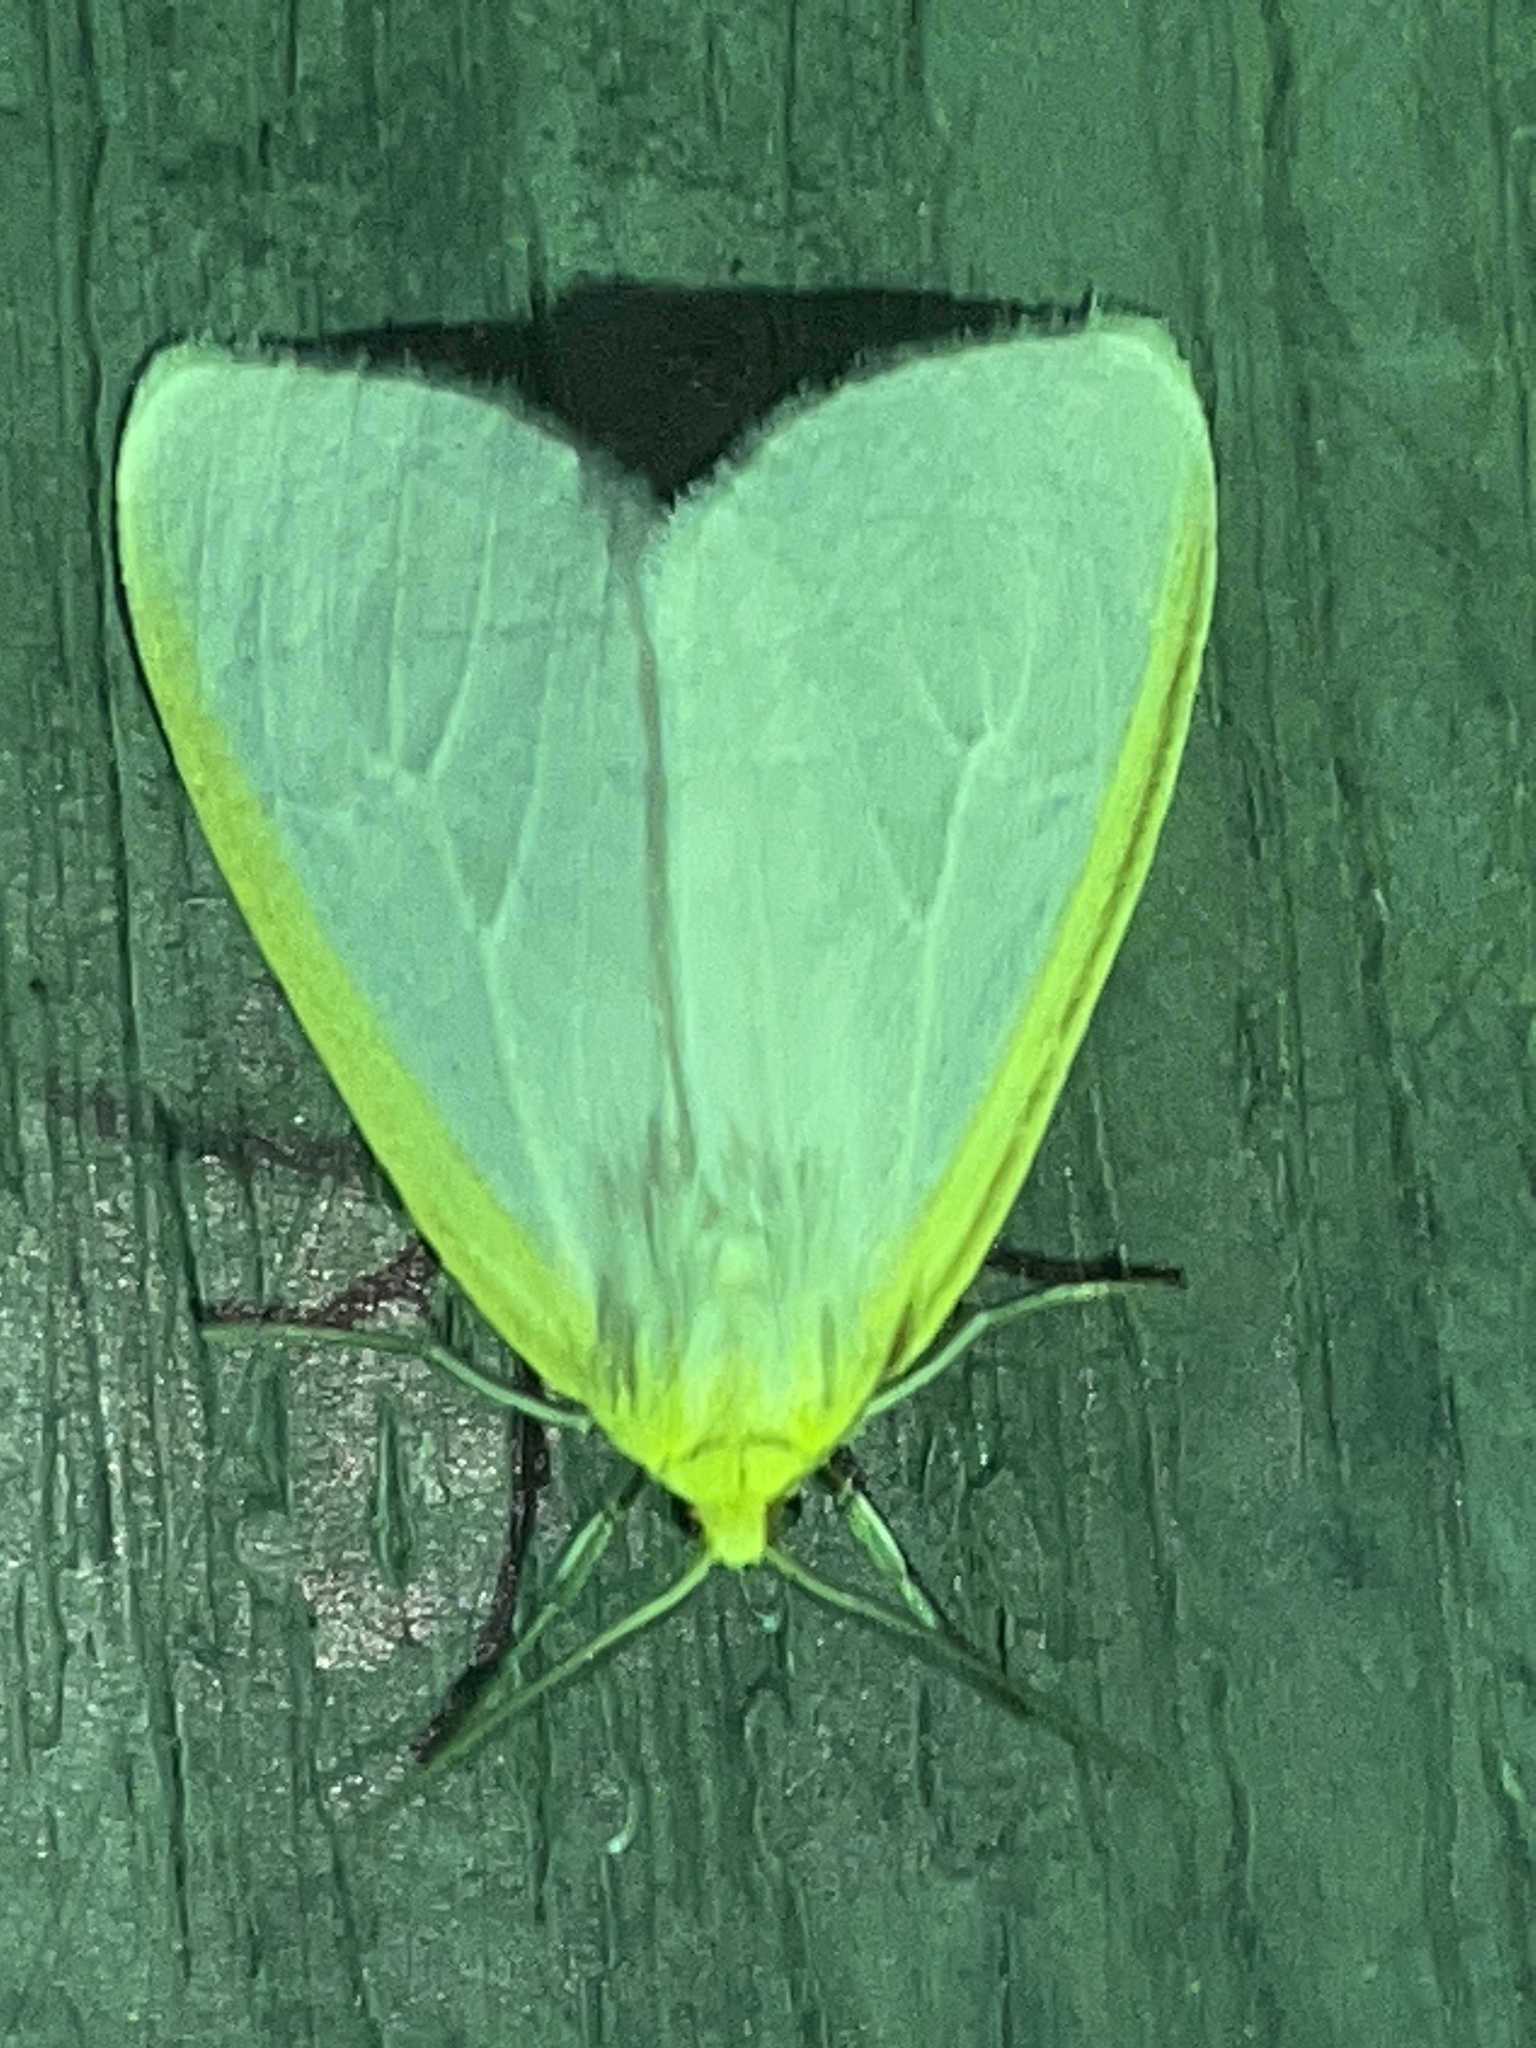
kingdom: Animalia
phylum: Arthropoda
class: Insecta
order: Lepidoptera
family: Erebidae
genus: Cycnia
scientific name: Cycnia tenera
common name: Delicate cycnia moth
